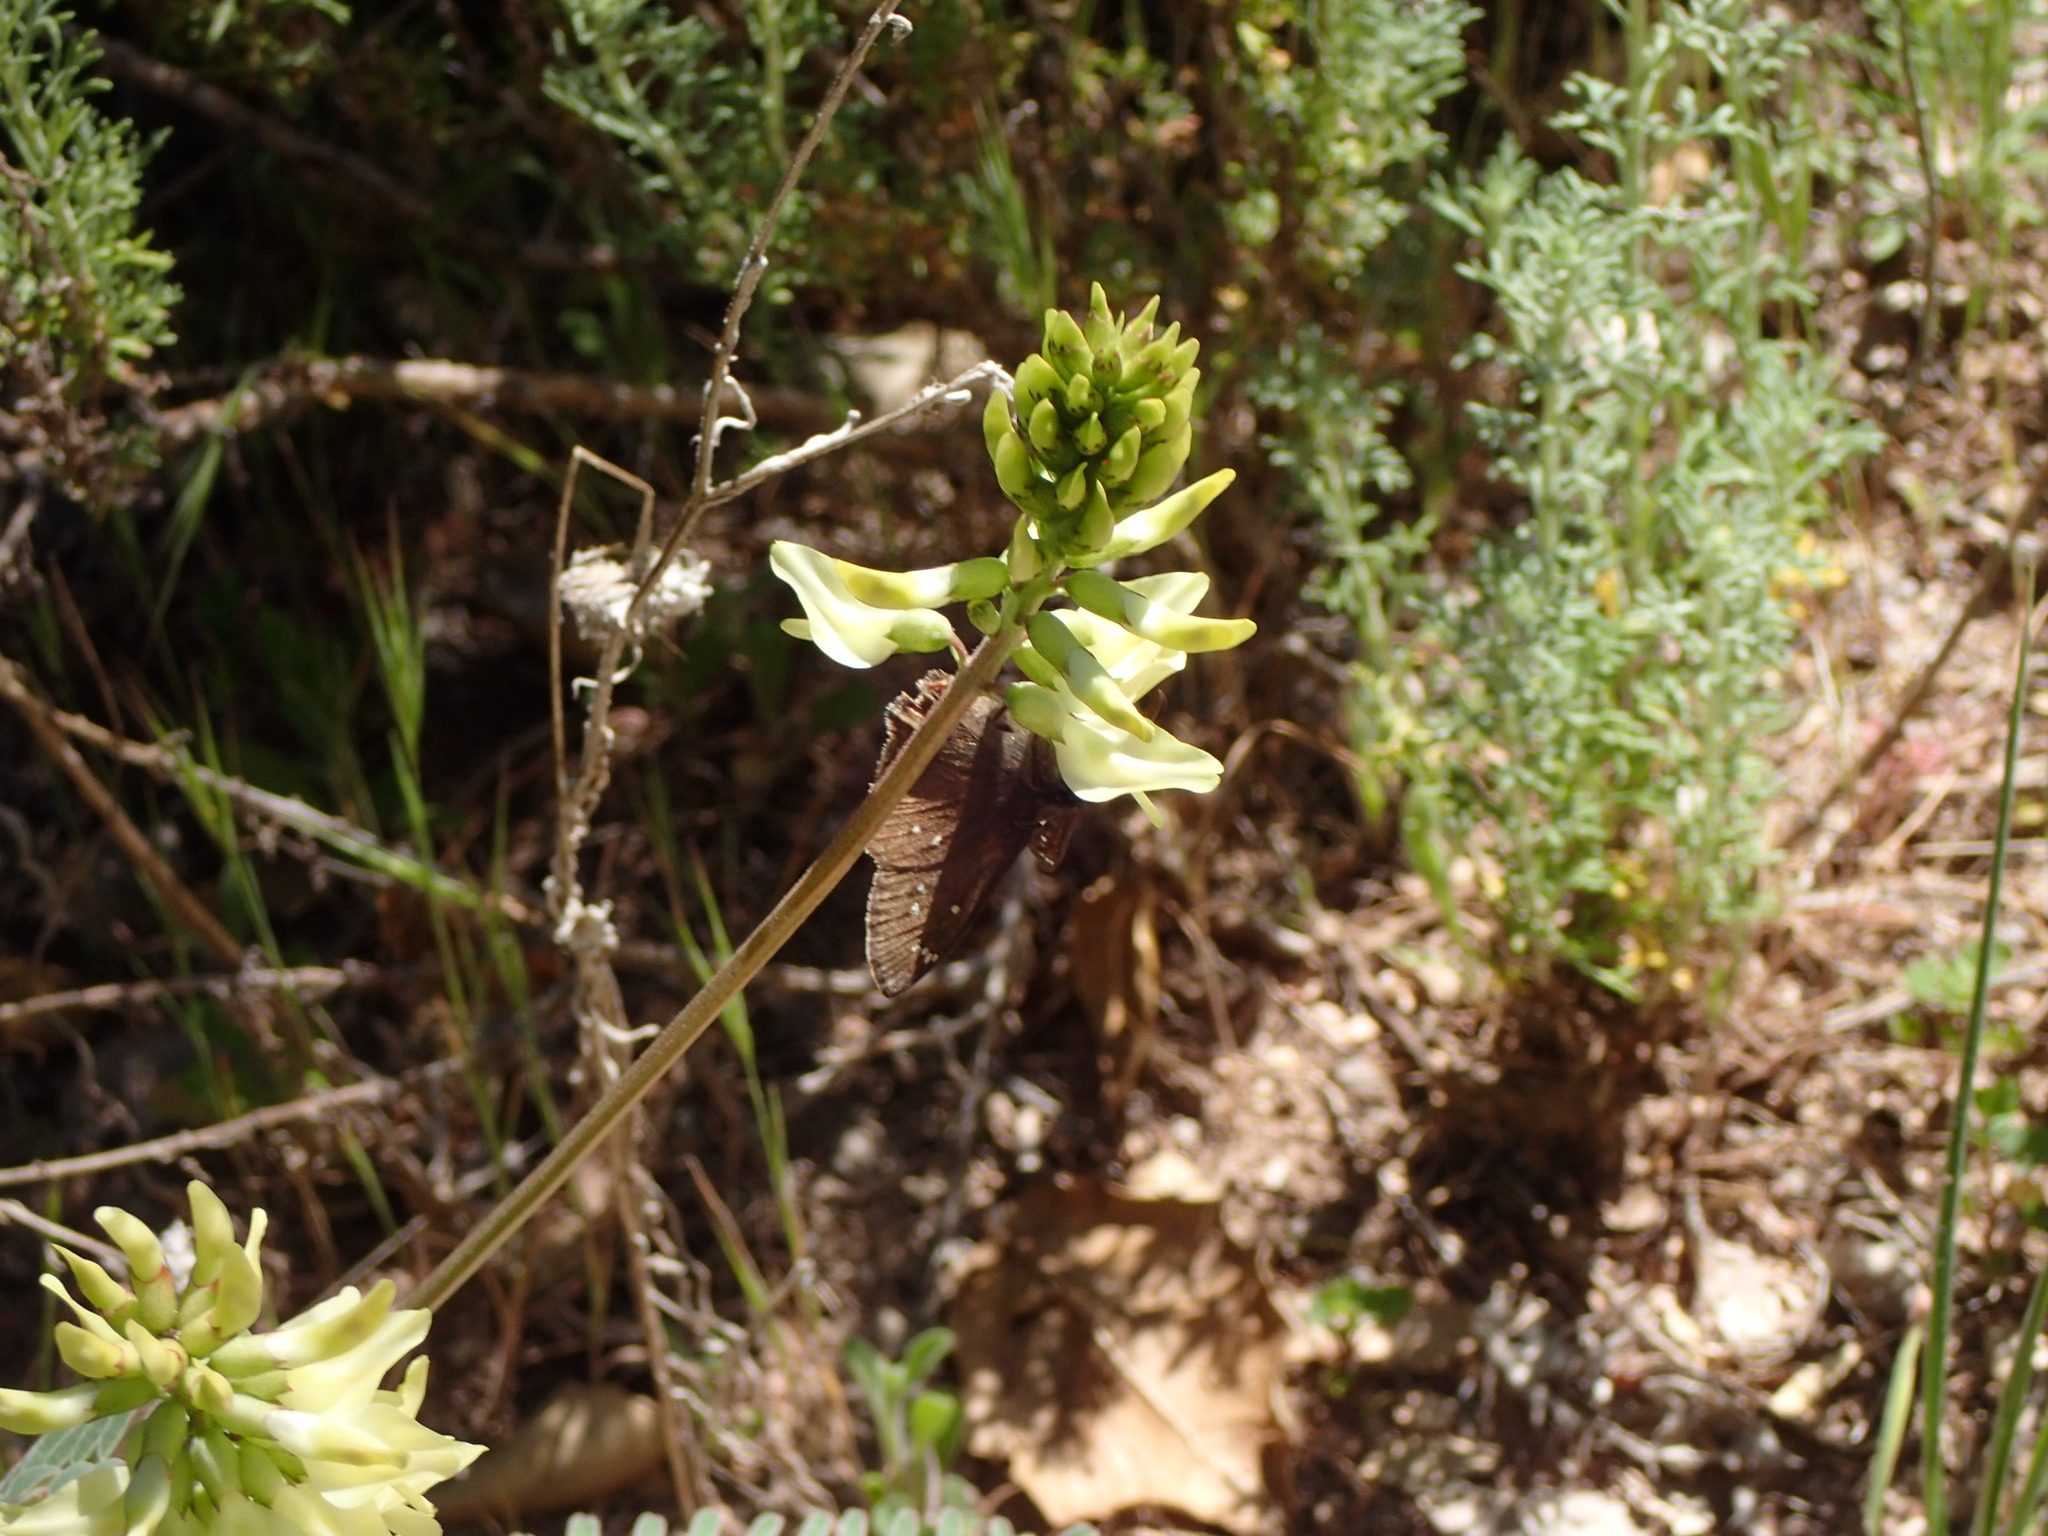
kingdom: Plantae
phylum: Tracheophyta
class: Magnoliopsida
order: Fabales
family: Fabaceae
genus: Astragalus
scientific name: Astragalus trichopodus
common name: Santa barbara milk-vetch
